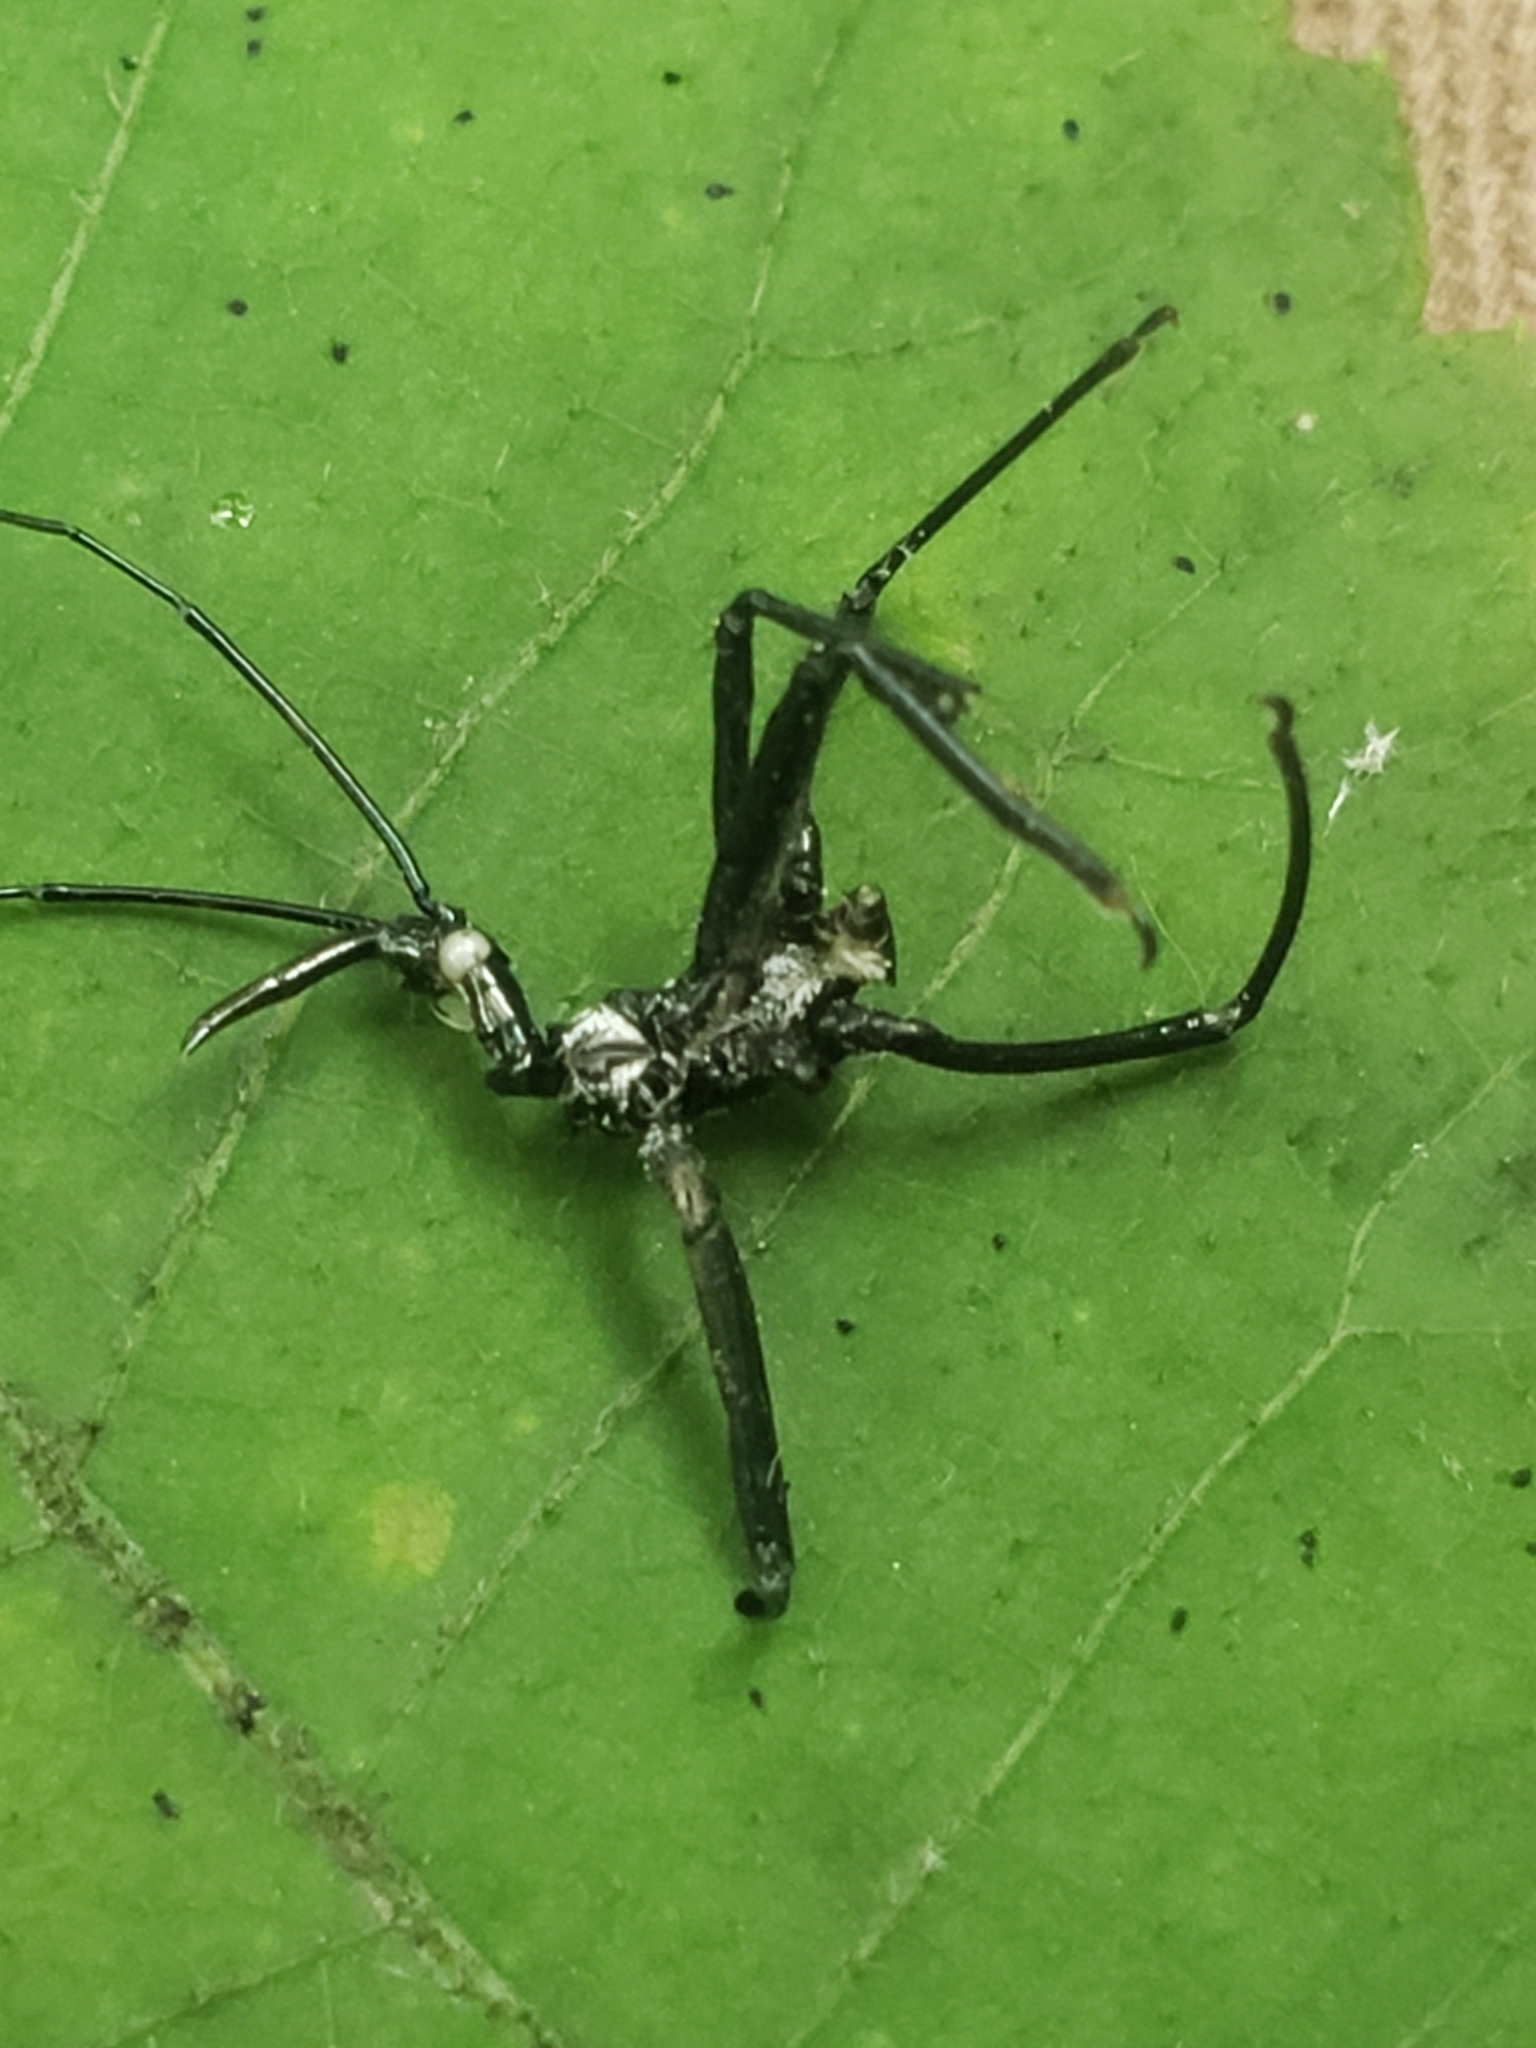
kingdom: Animalia
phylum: Arthropoda
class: Insecta
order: Hemiptera
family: Reduviidae
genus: Arilus
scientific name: Arilus cristatus
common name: North american wheel bug
